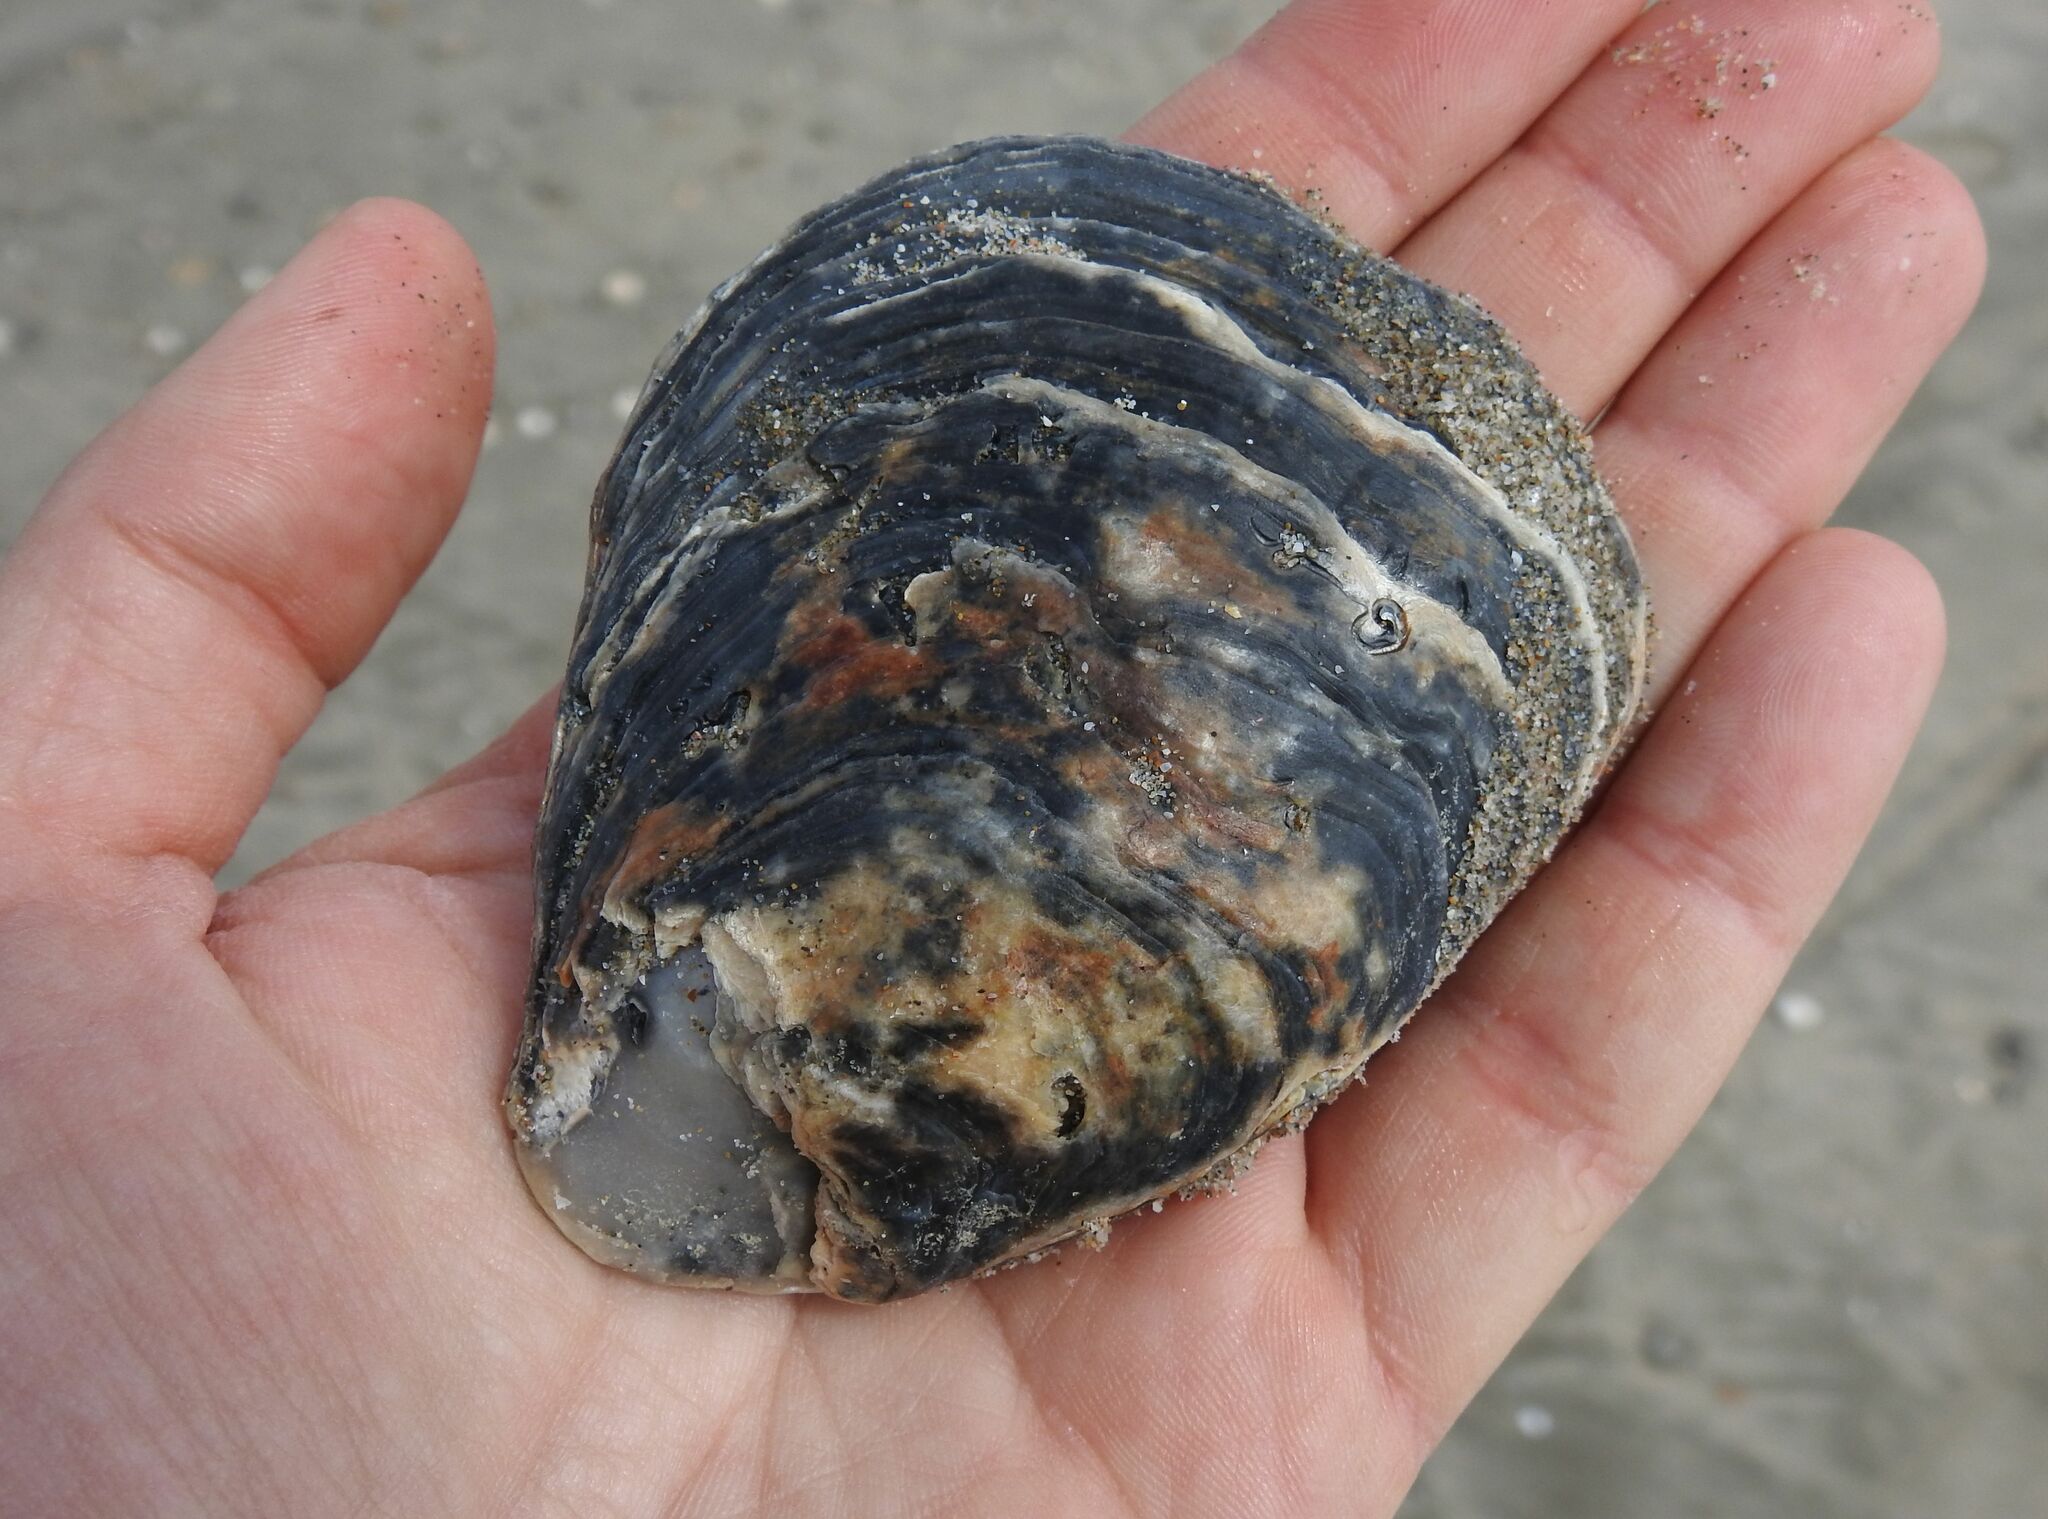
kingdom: Animalia
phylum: Mollusca
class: Bivalvia
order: Ostreida
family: Ostreidae
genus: Ostrea
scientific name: Ostrea edulis
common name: Flat oyster
